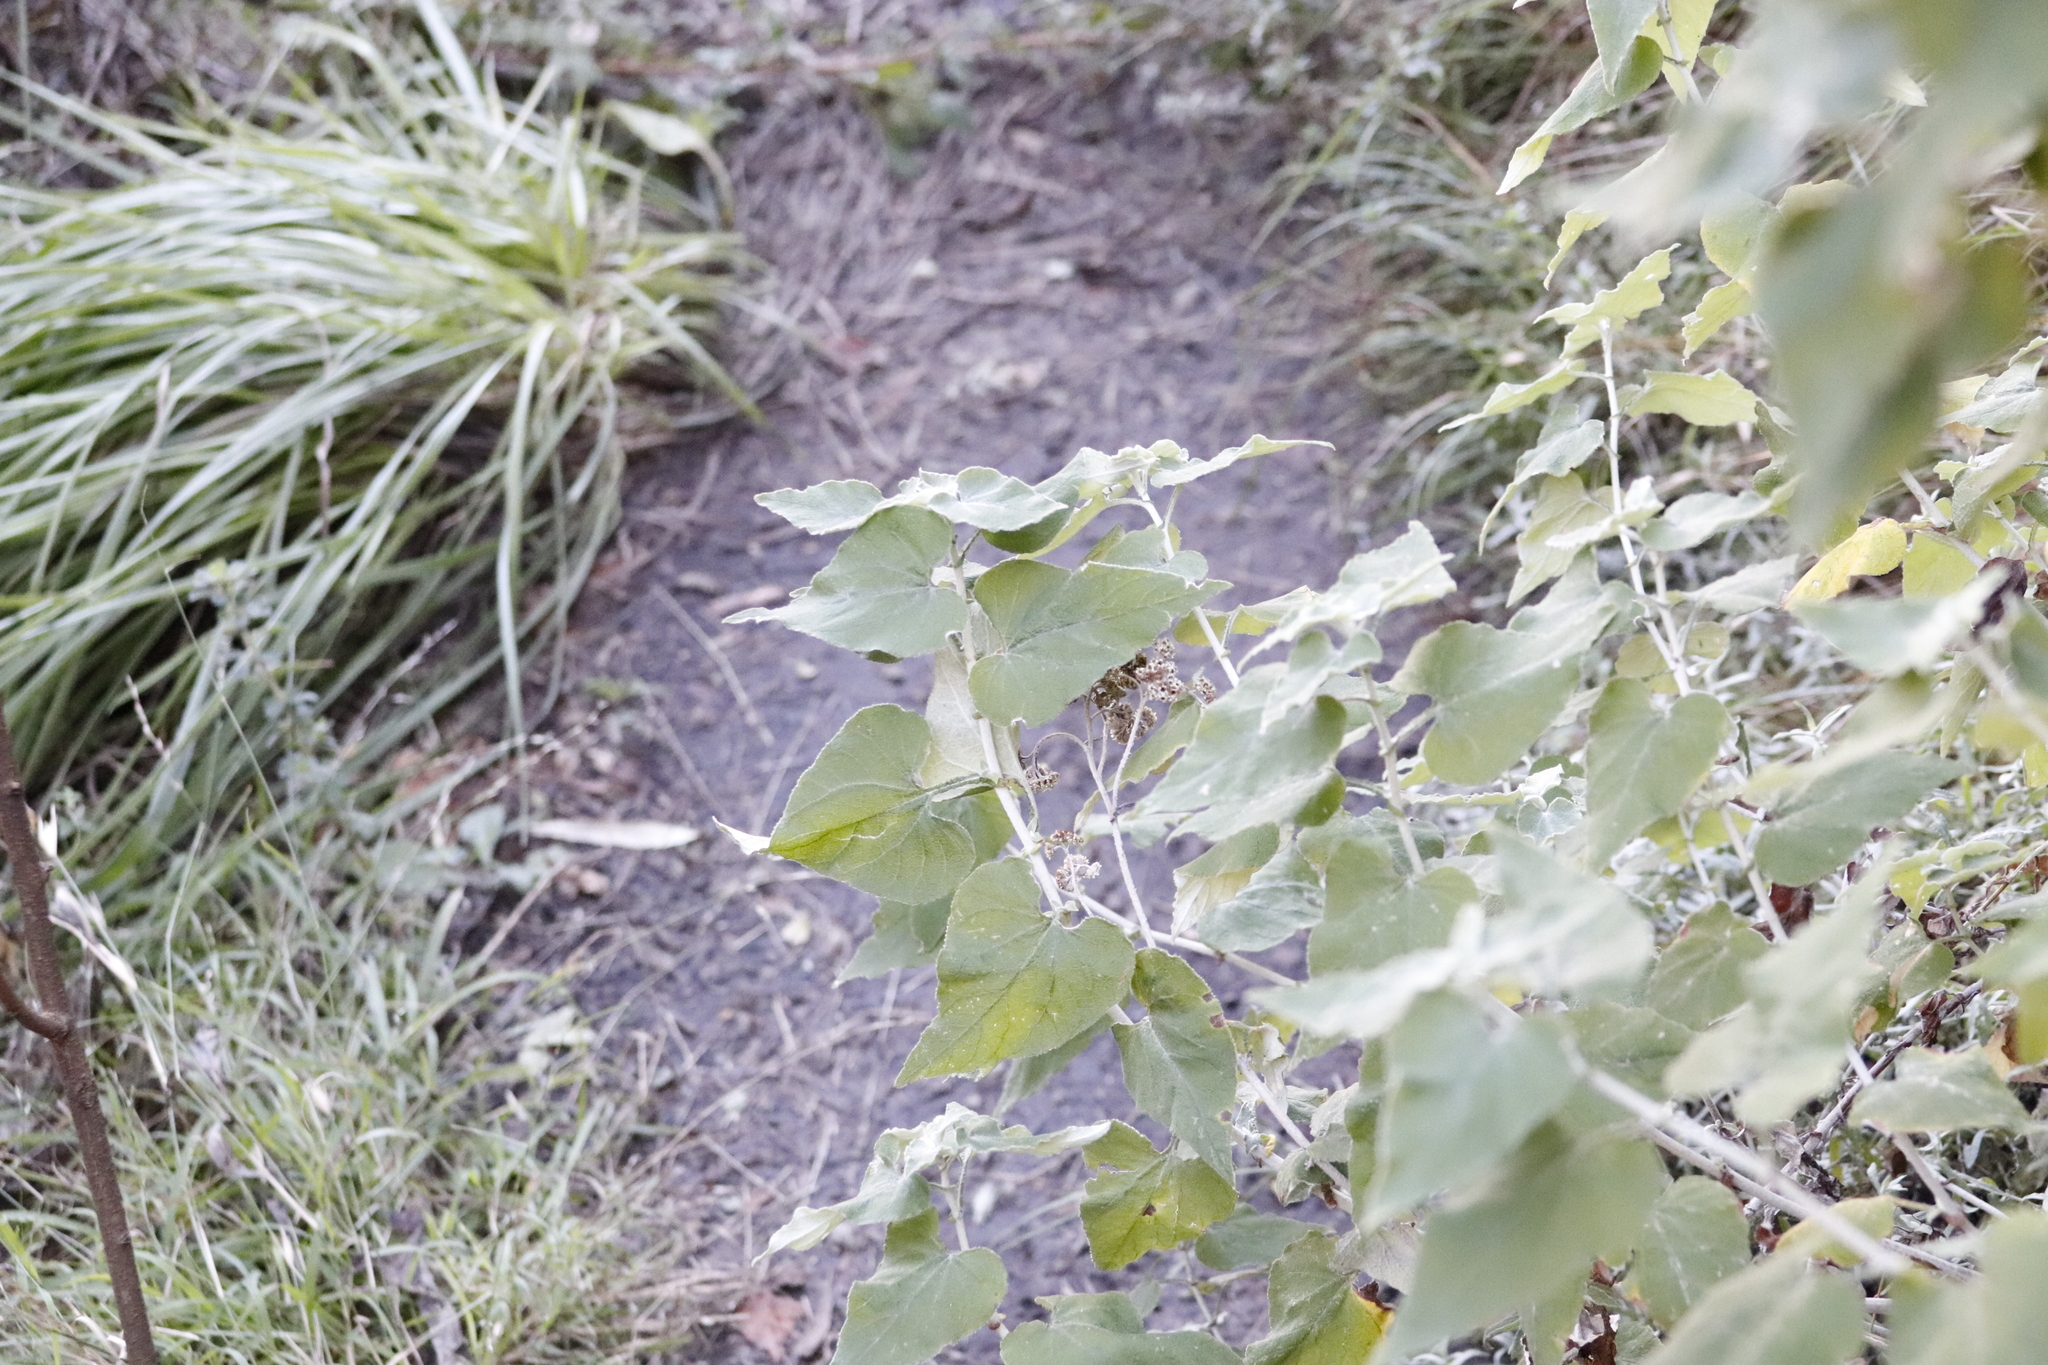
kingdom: Plantae
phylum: Tracheophyta
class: Magnoliopsida
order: Asterales
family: Asteraceae
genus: Helichrysum
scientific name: Helichrysum hypoleucum
